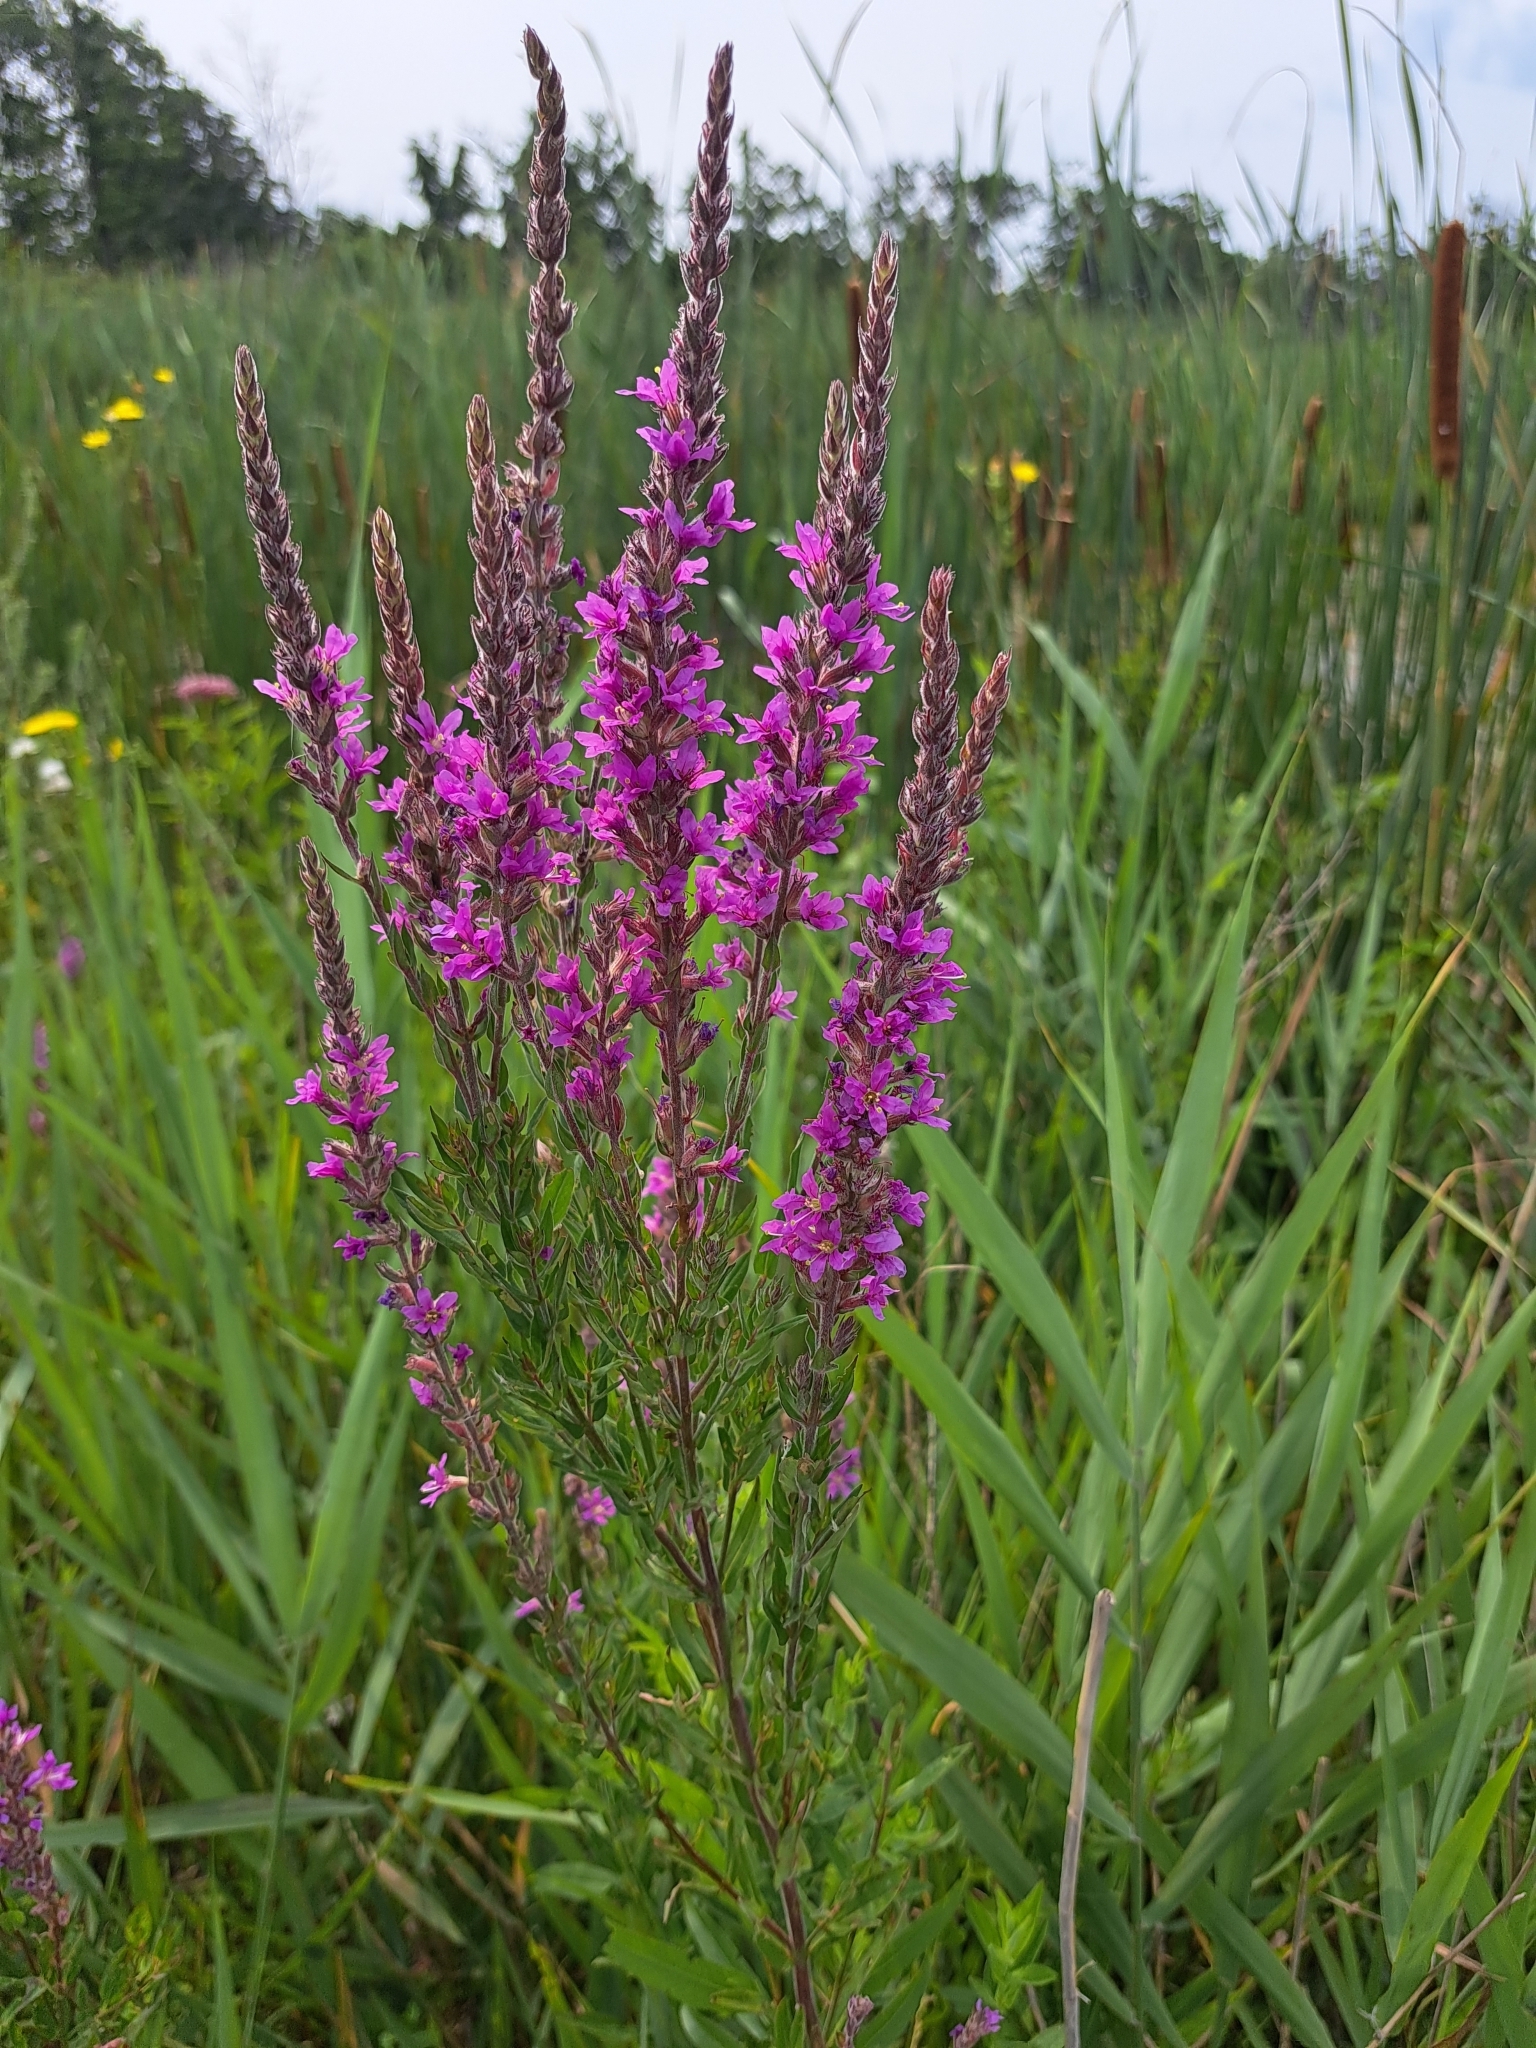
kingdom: Plantae
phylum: Tracheophyta
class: Magnoliopsida
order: Myrtales
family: Lythraceae
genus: Lythrum
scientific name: Lythrum salicaria
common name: Purple loosestrife
